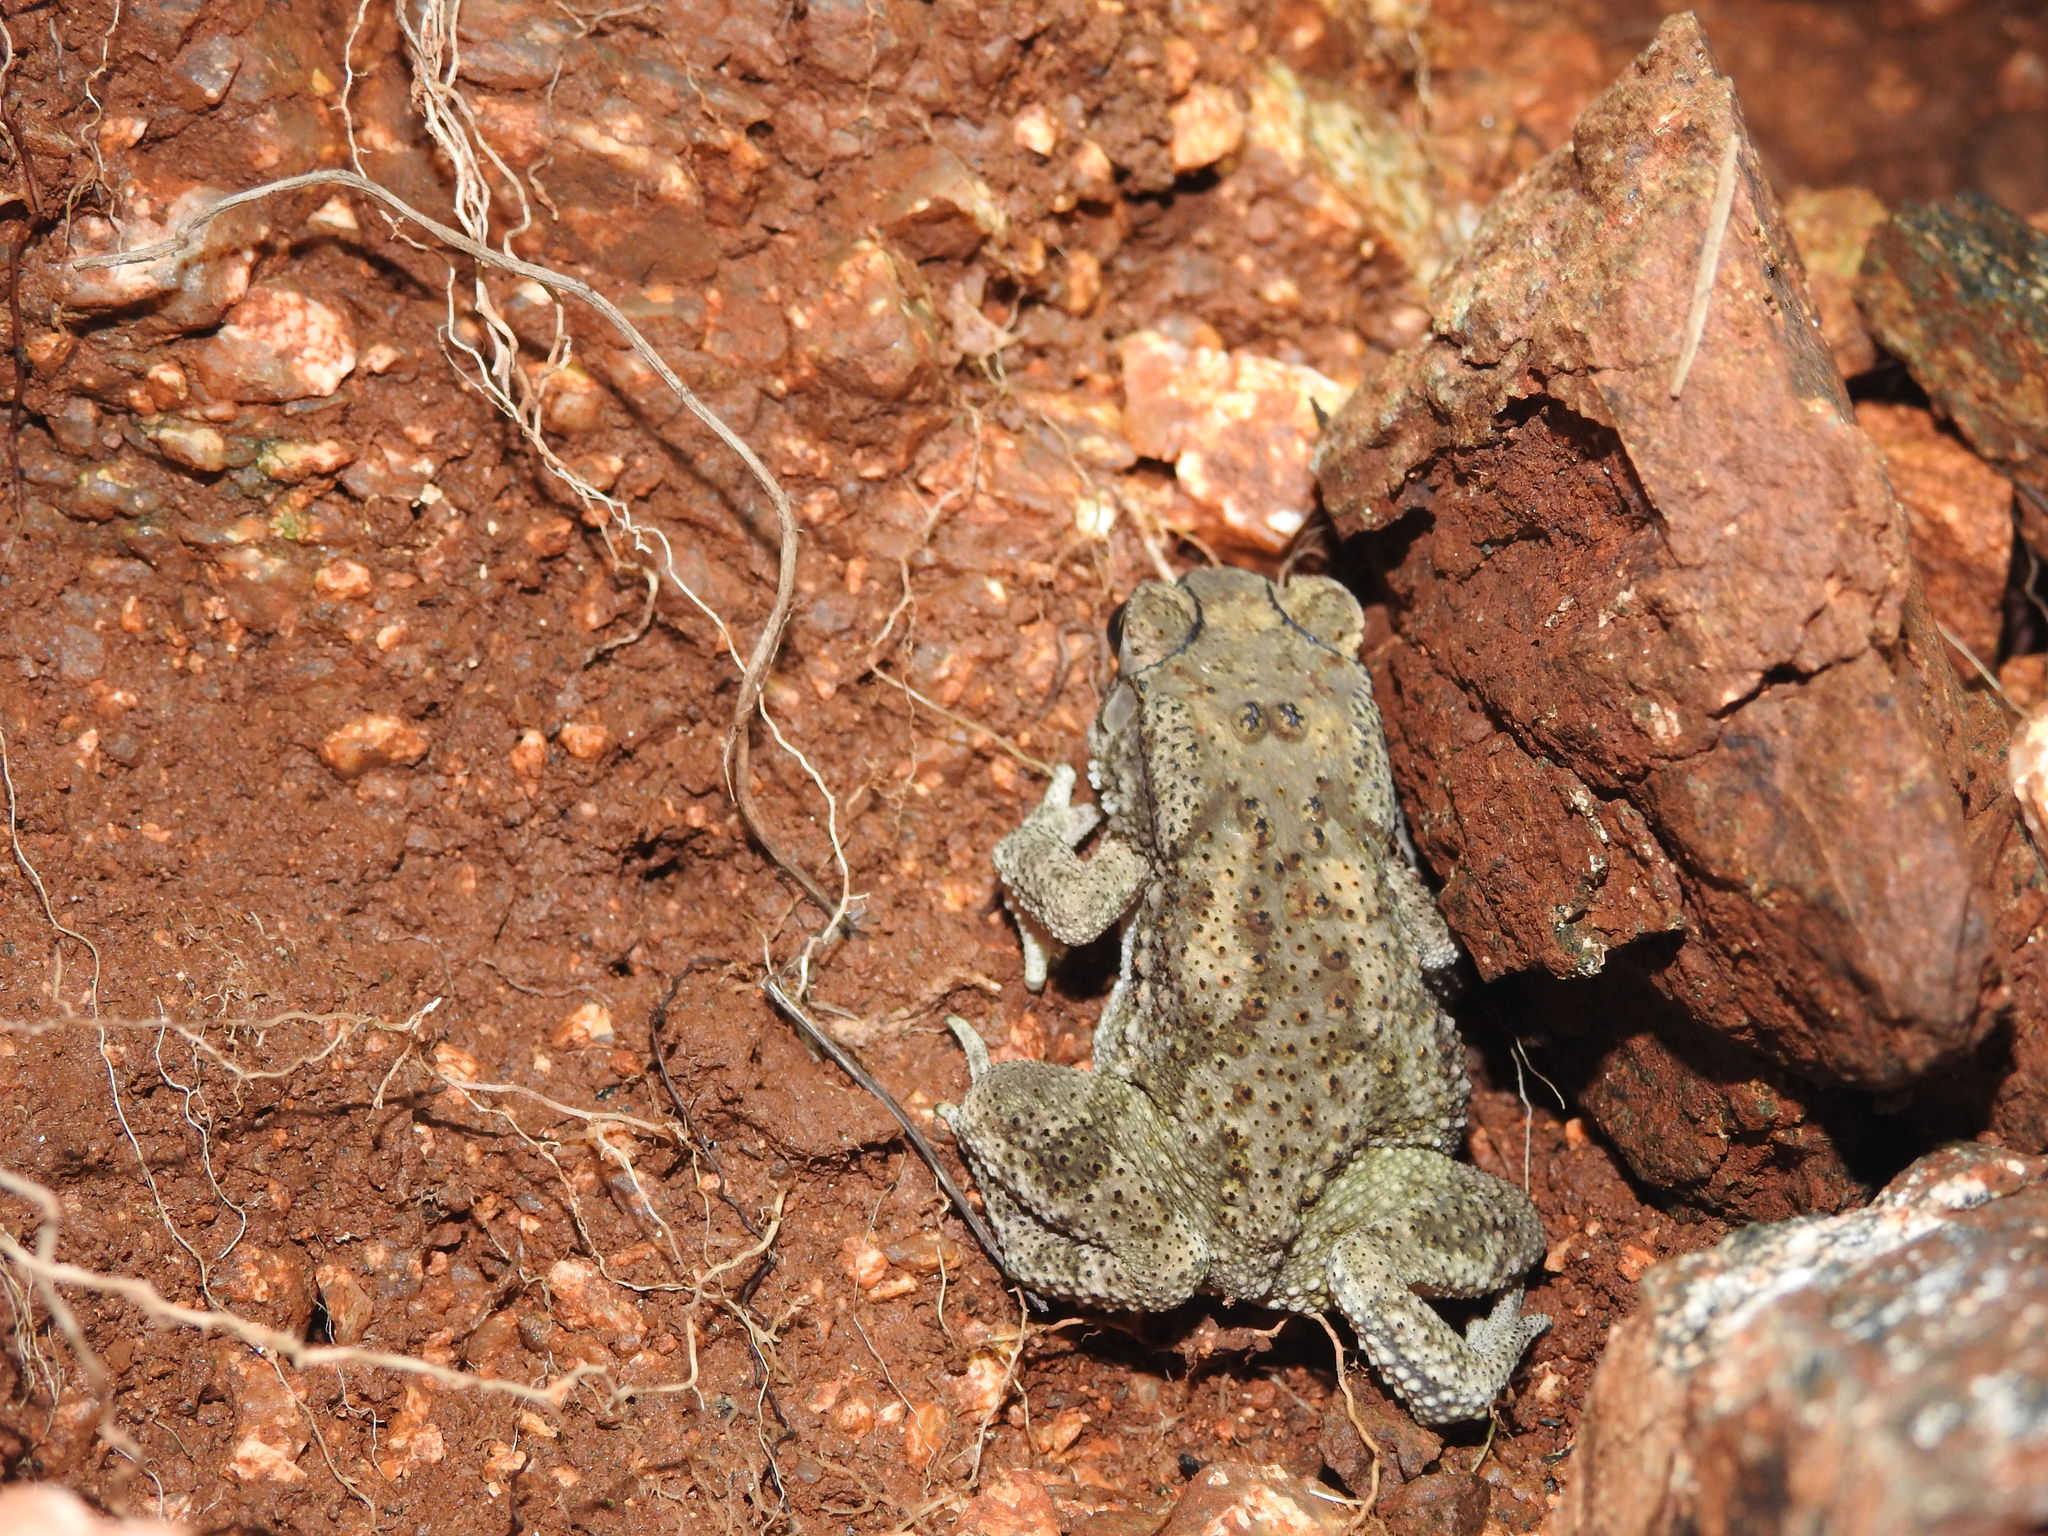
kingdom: Animalia
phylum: Chordata
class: Amphibia
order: Anura
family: Bufonidae
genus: Duttaphrynus
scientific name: Duttaphrynus melanostictus
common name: Common sunda toad
